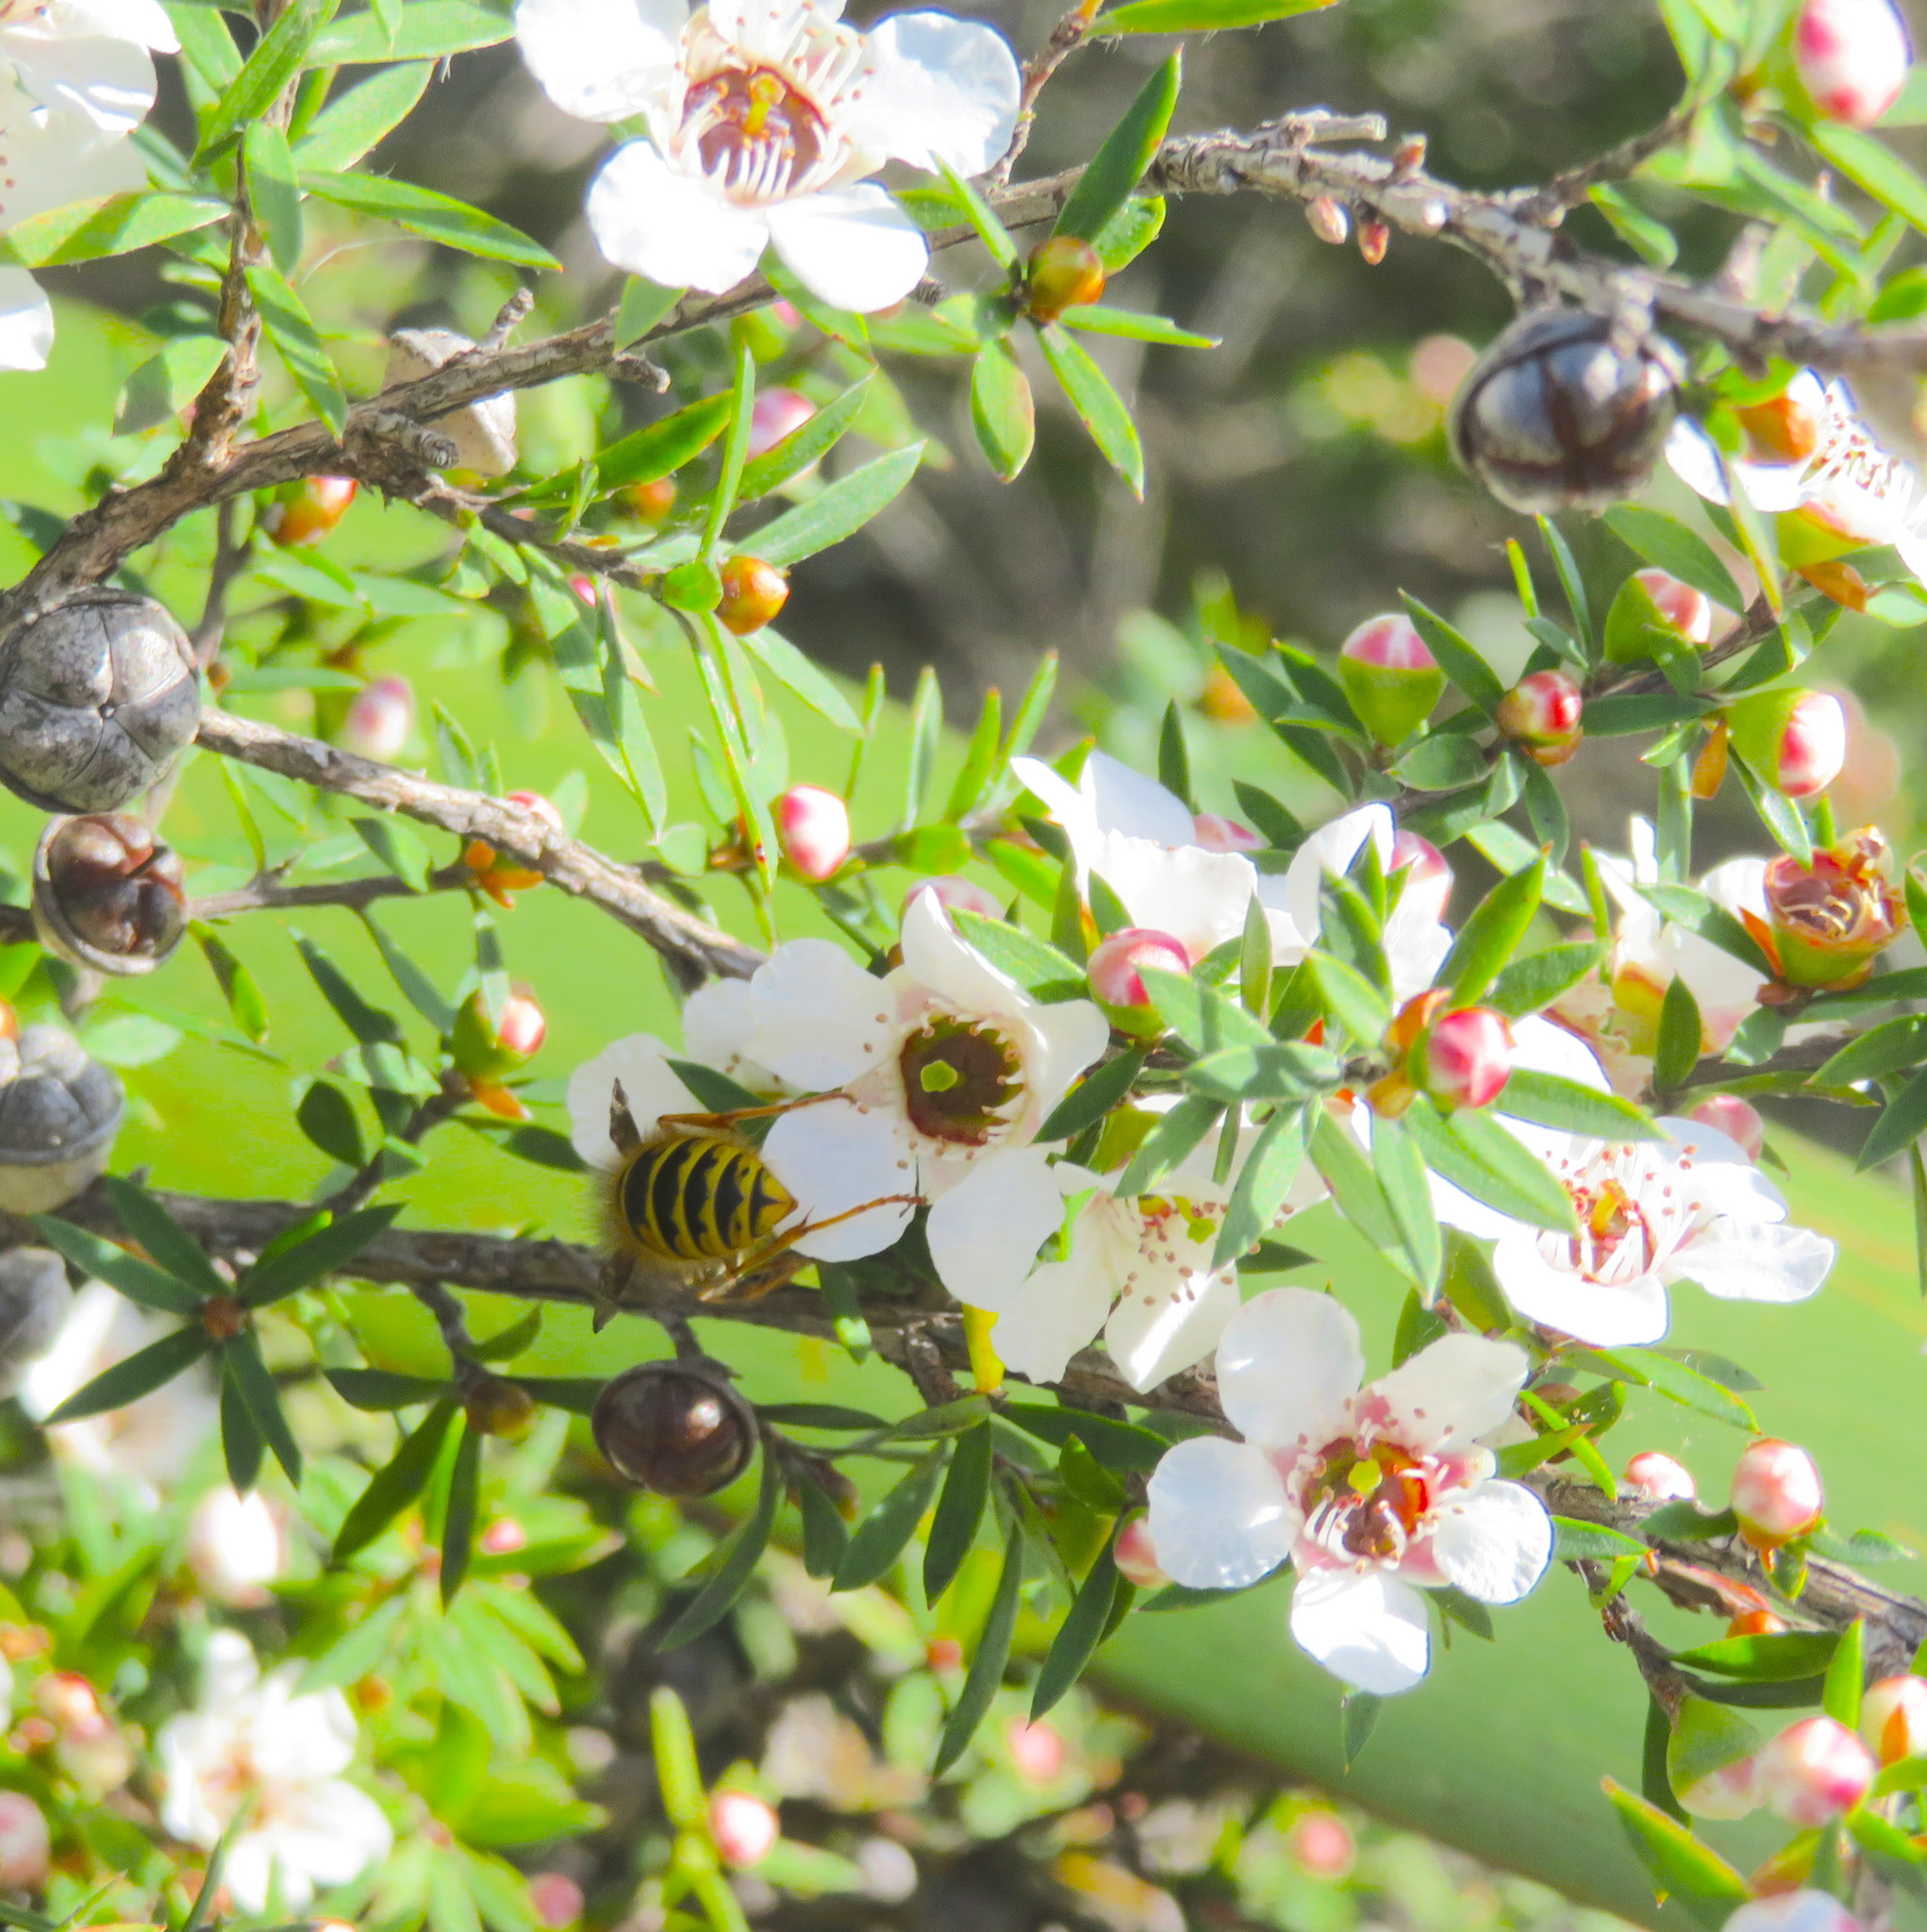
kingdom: Animalia
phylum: Arthropoda
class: Insecta
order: Hymenoptera
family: Vespidae
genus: Vespula
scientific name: Vespula vulgaris
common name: Common wasp
